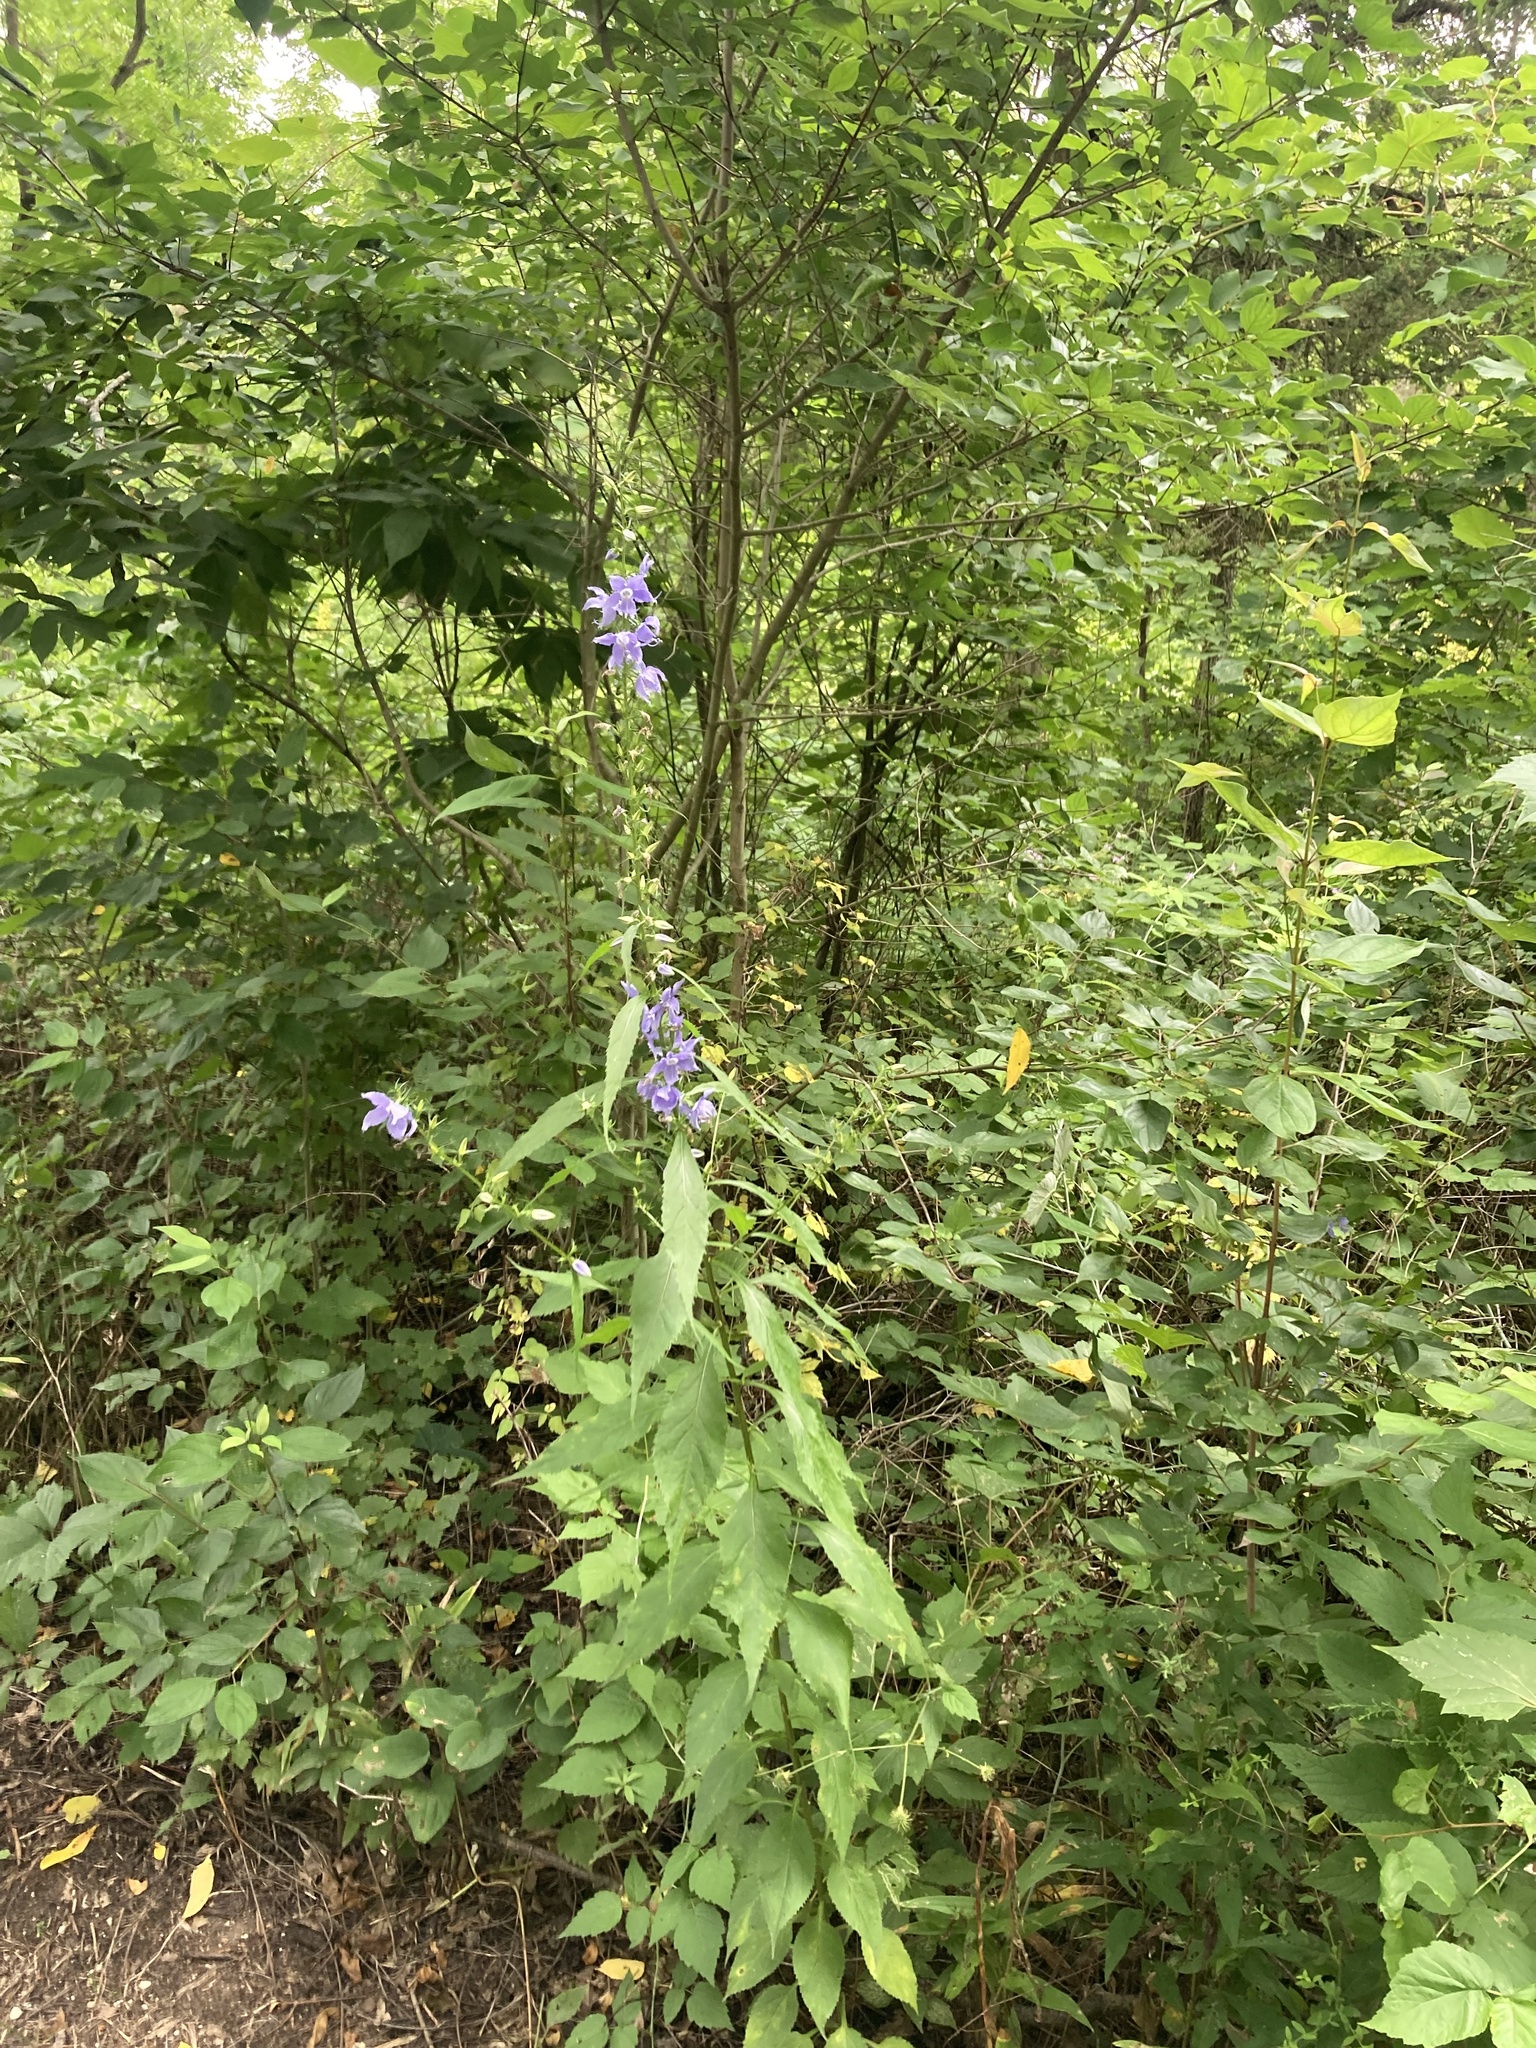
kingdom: Plantae
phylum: Tracheophyta
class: Magnoliopsida
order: Asterales
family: Campanulaceae
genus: Campanulastrum
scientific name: Campanulastrum americanum
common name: American bellflower
